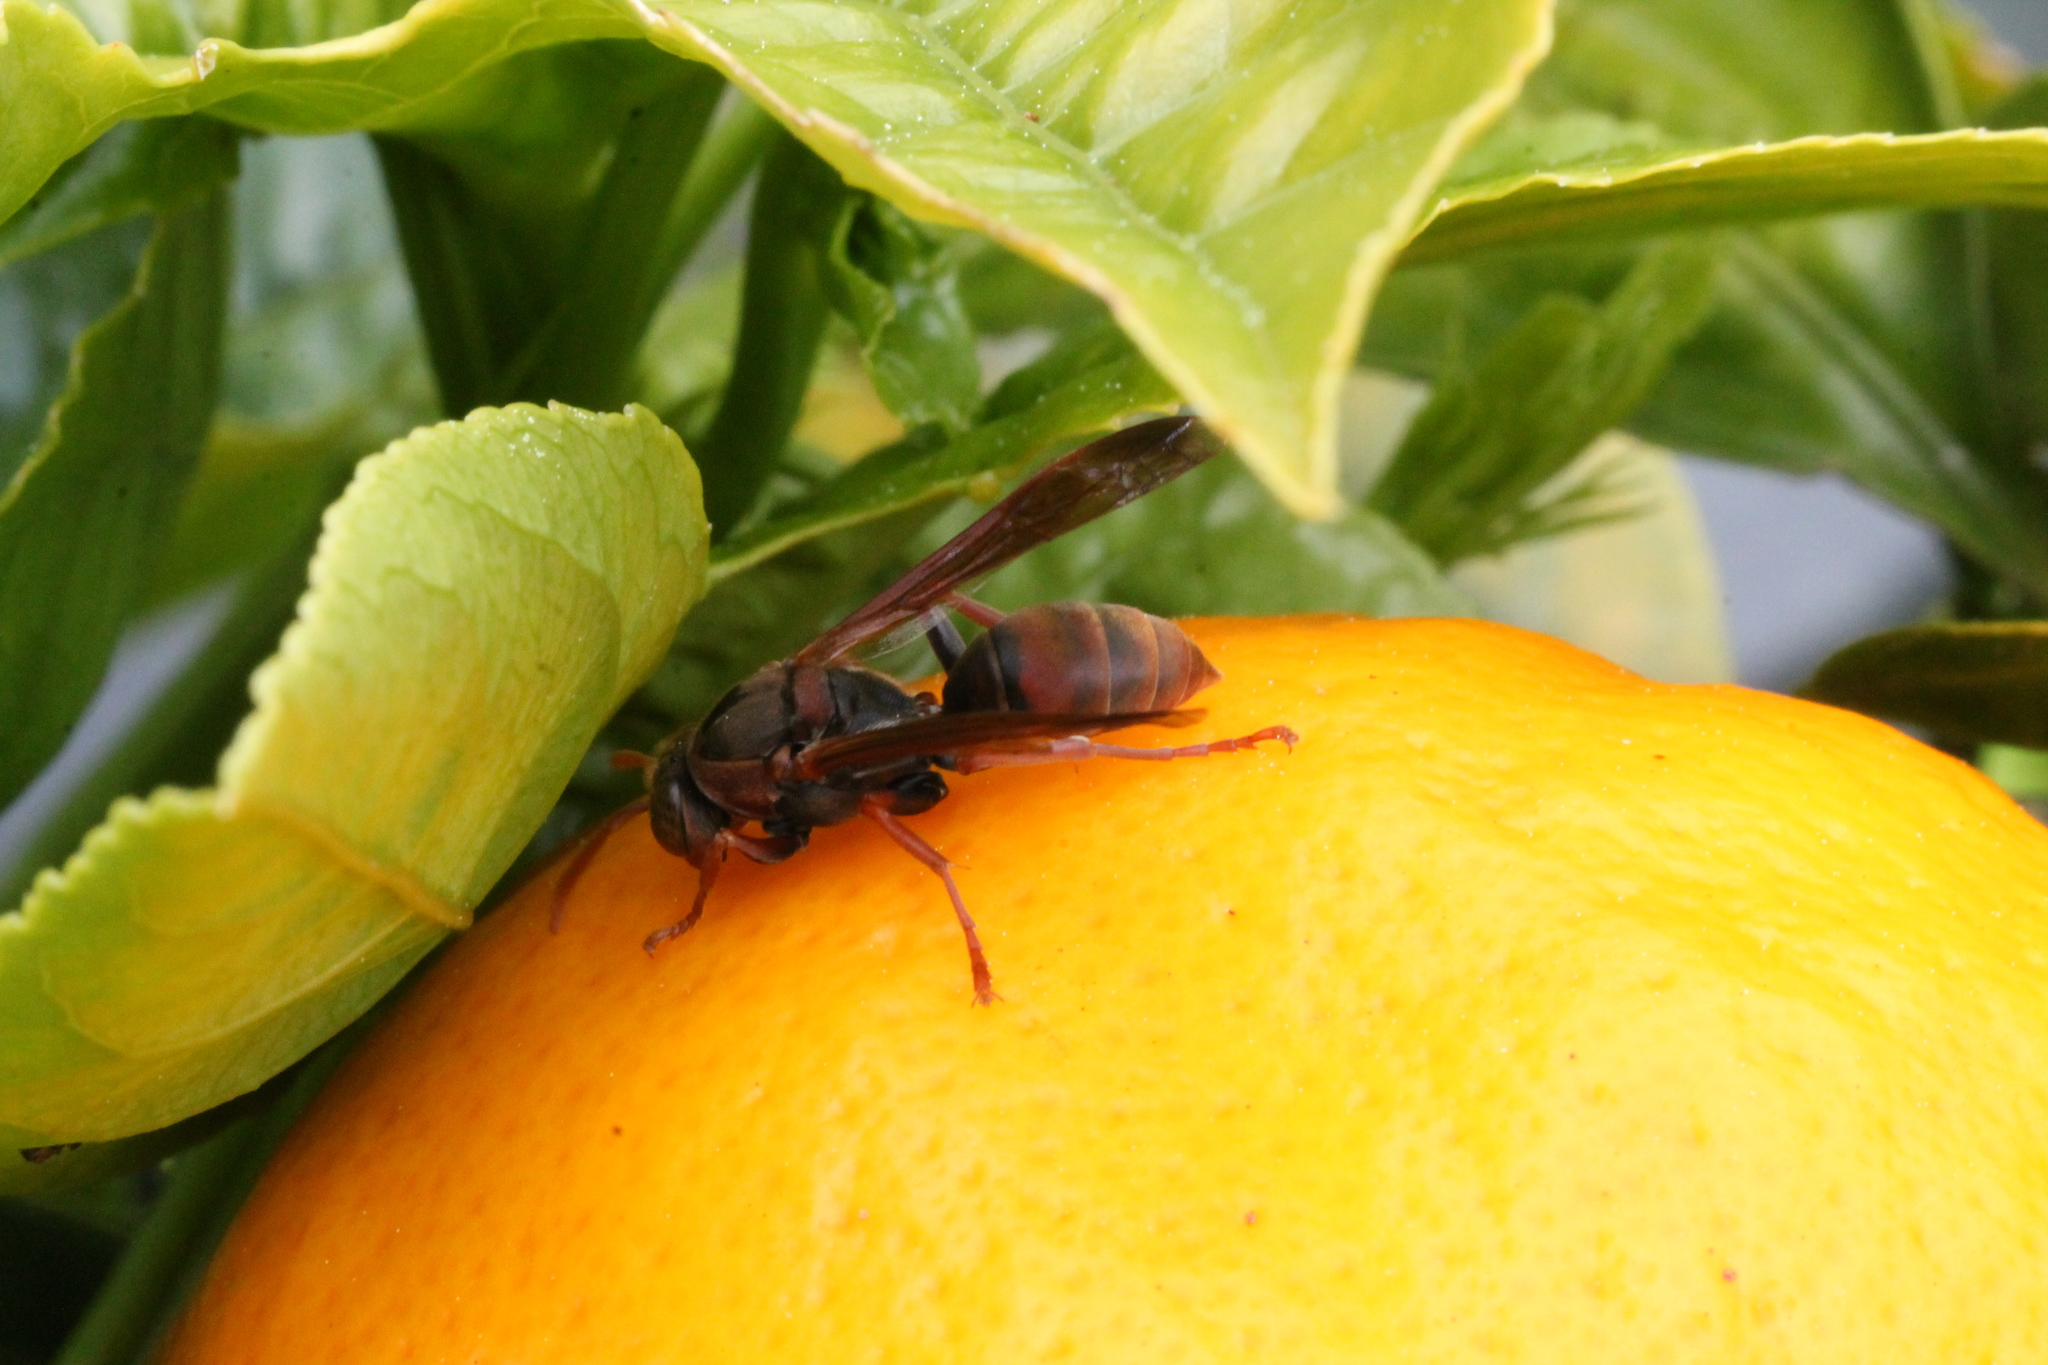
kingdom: Animalia
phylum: Arthropoda
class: Insecta
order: Hymenoptera
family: Eumenidae
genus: Polistes
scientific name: Polistes humilis
